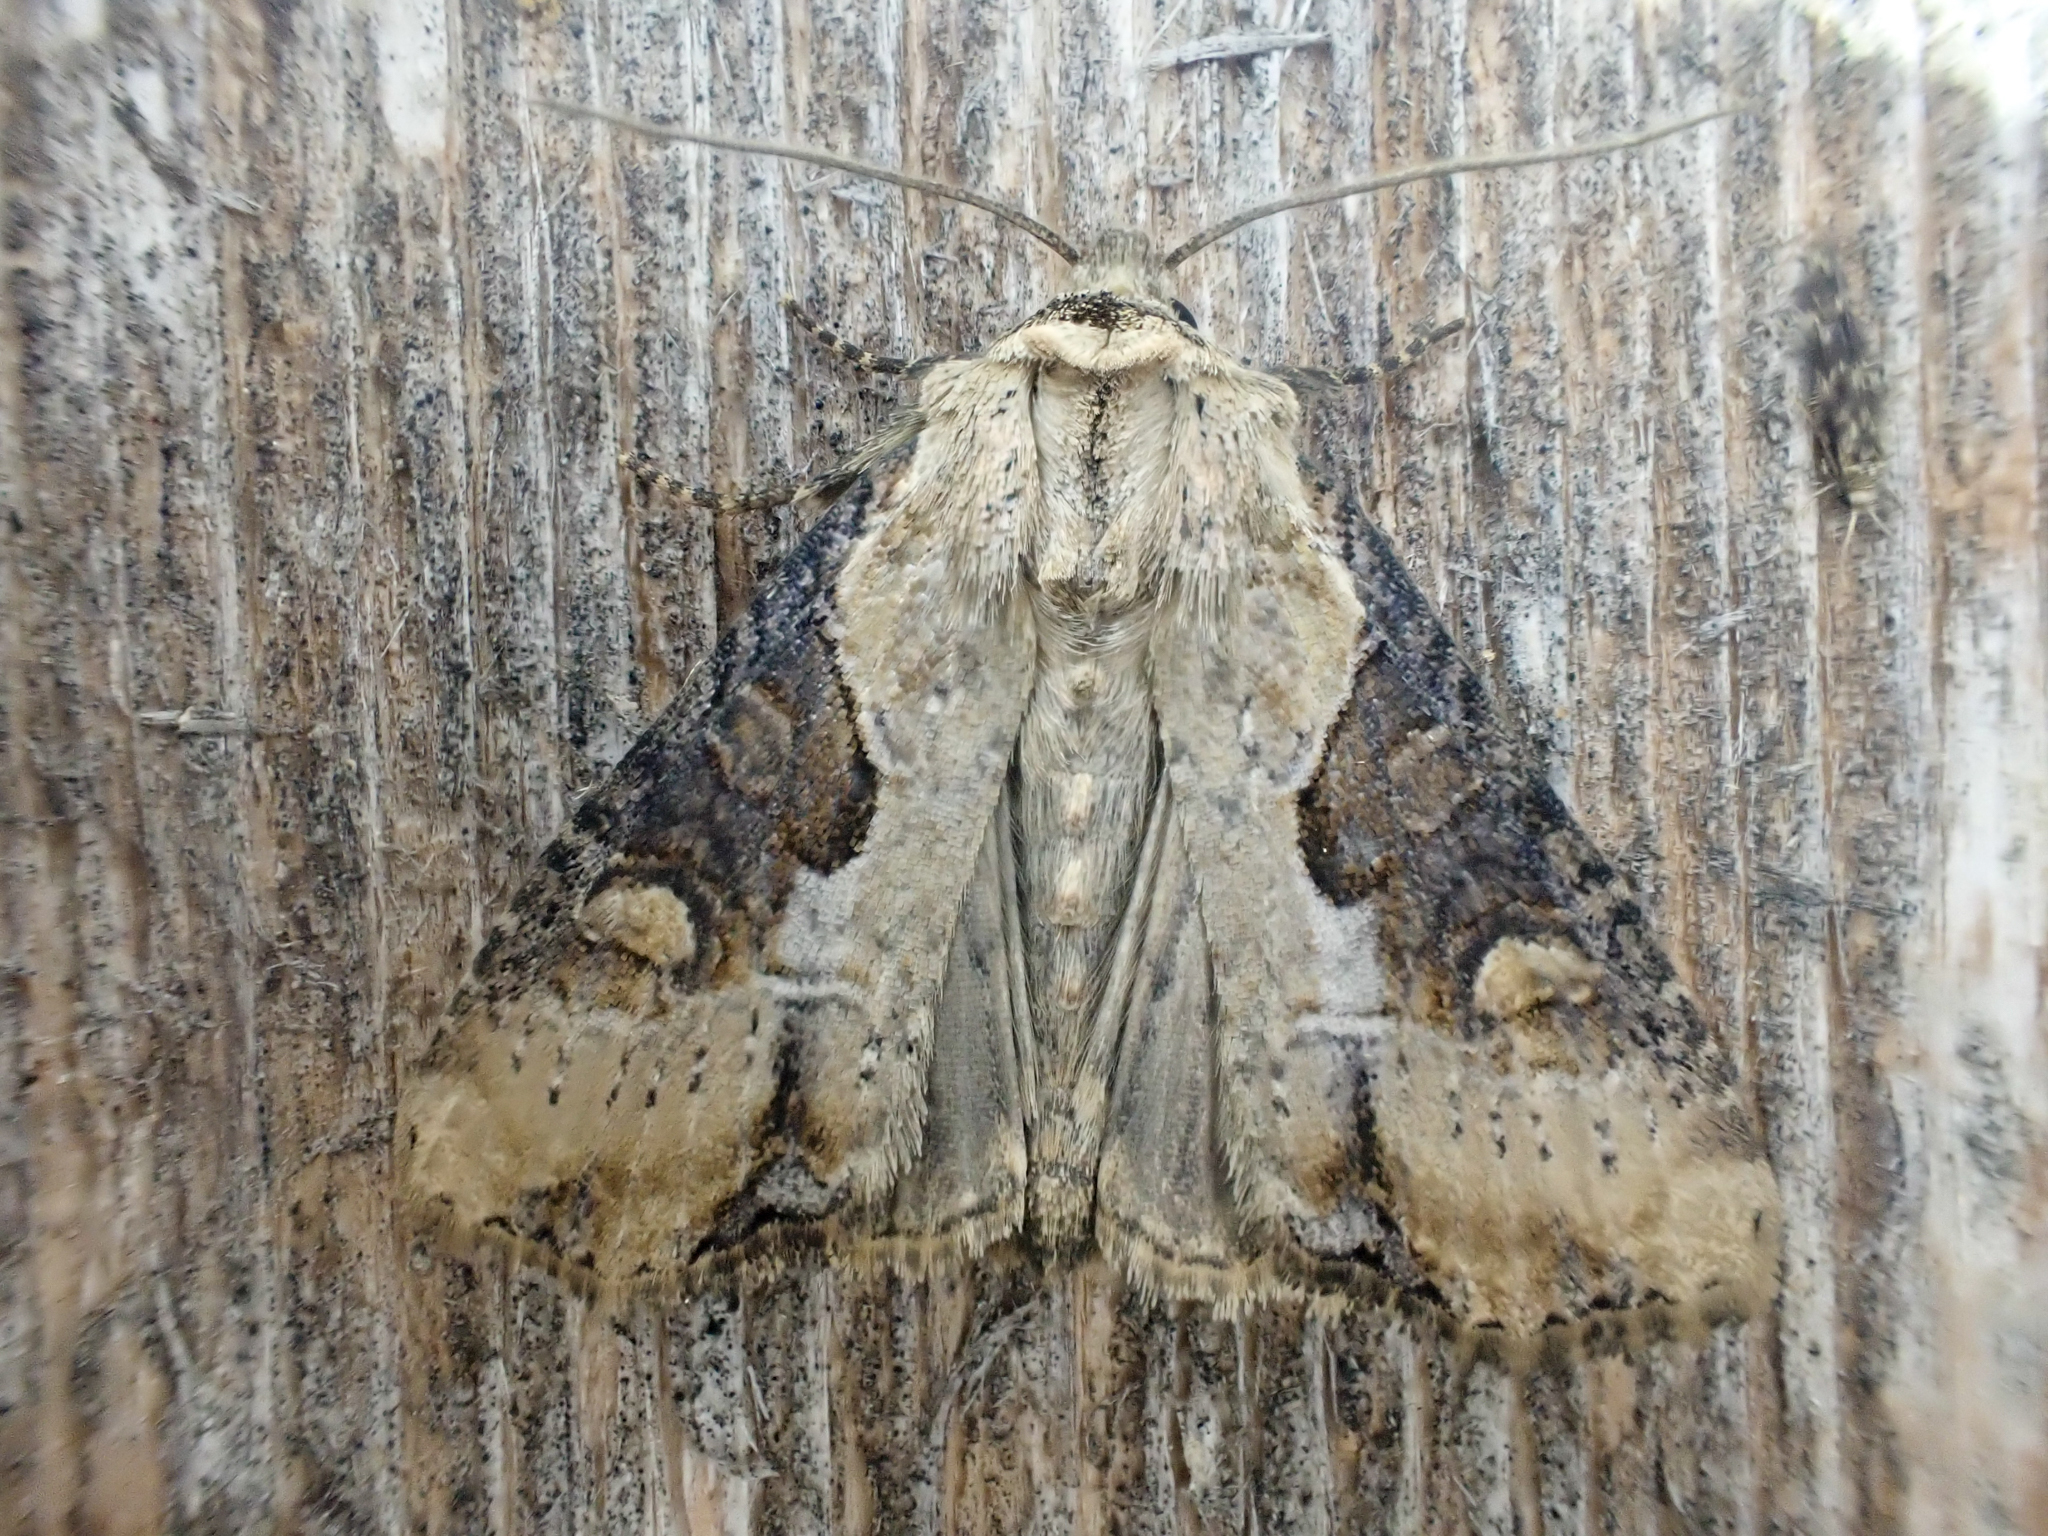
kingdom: Animalia
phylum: Arthropoda
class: Insecta
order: Lepidoptera
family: Noctuidae
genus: Lateroligia
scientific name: Lateroligia ophiogramma
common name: Double lobed
